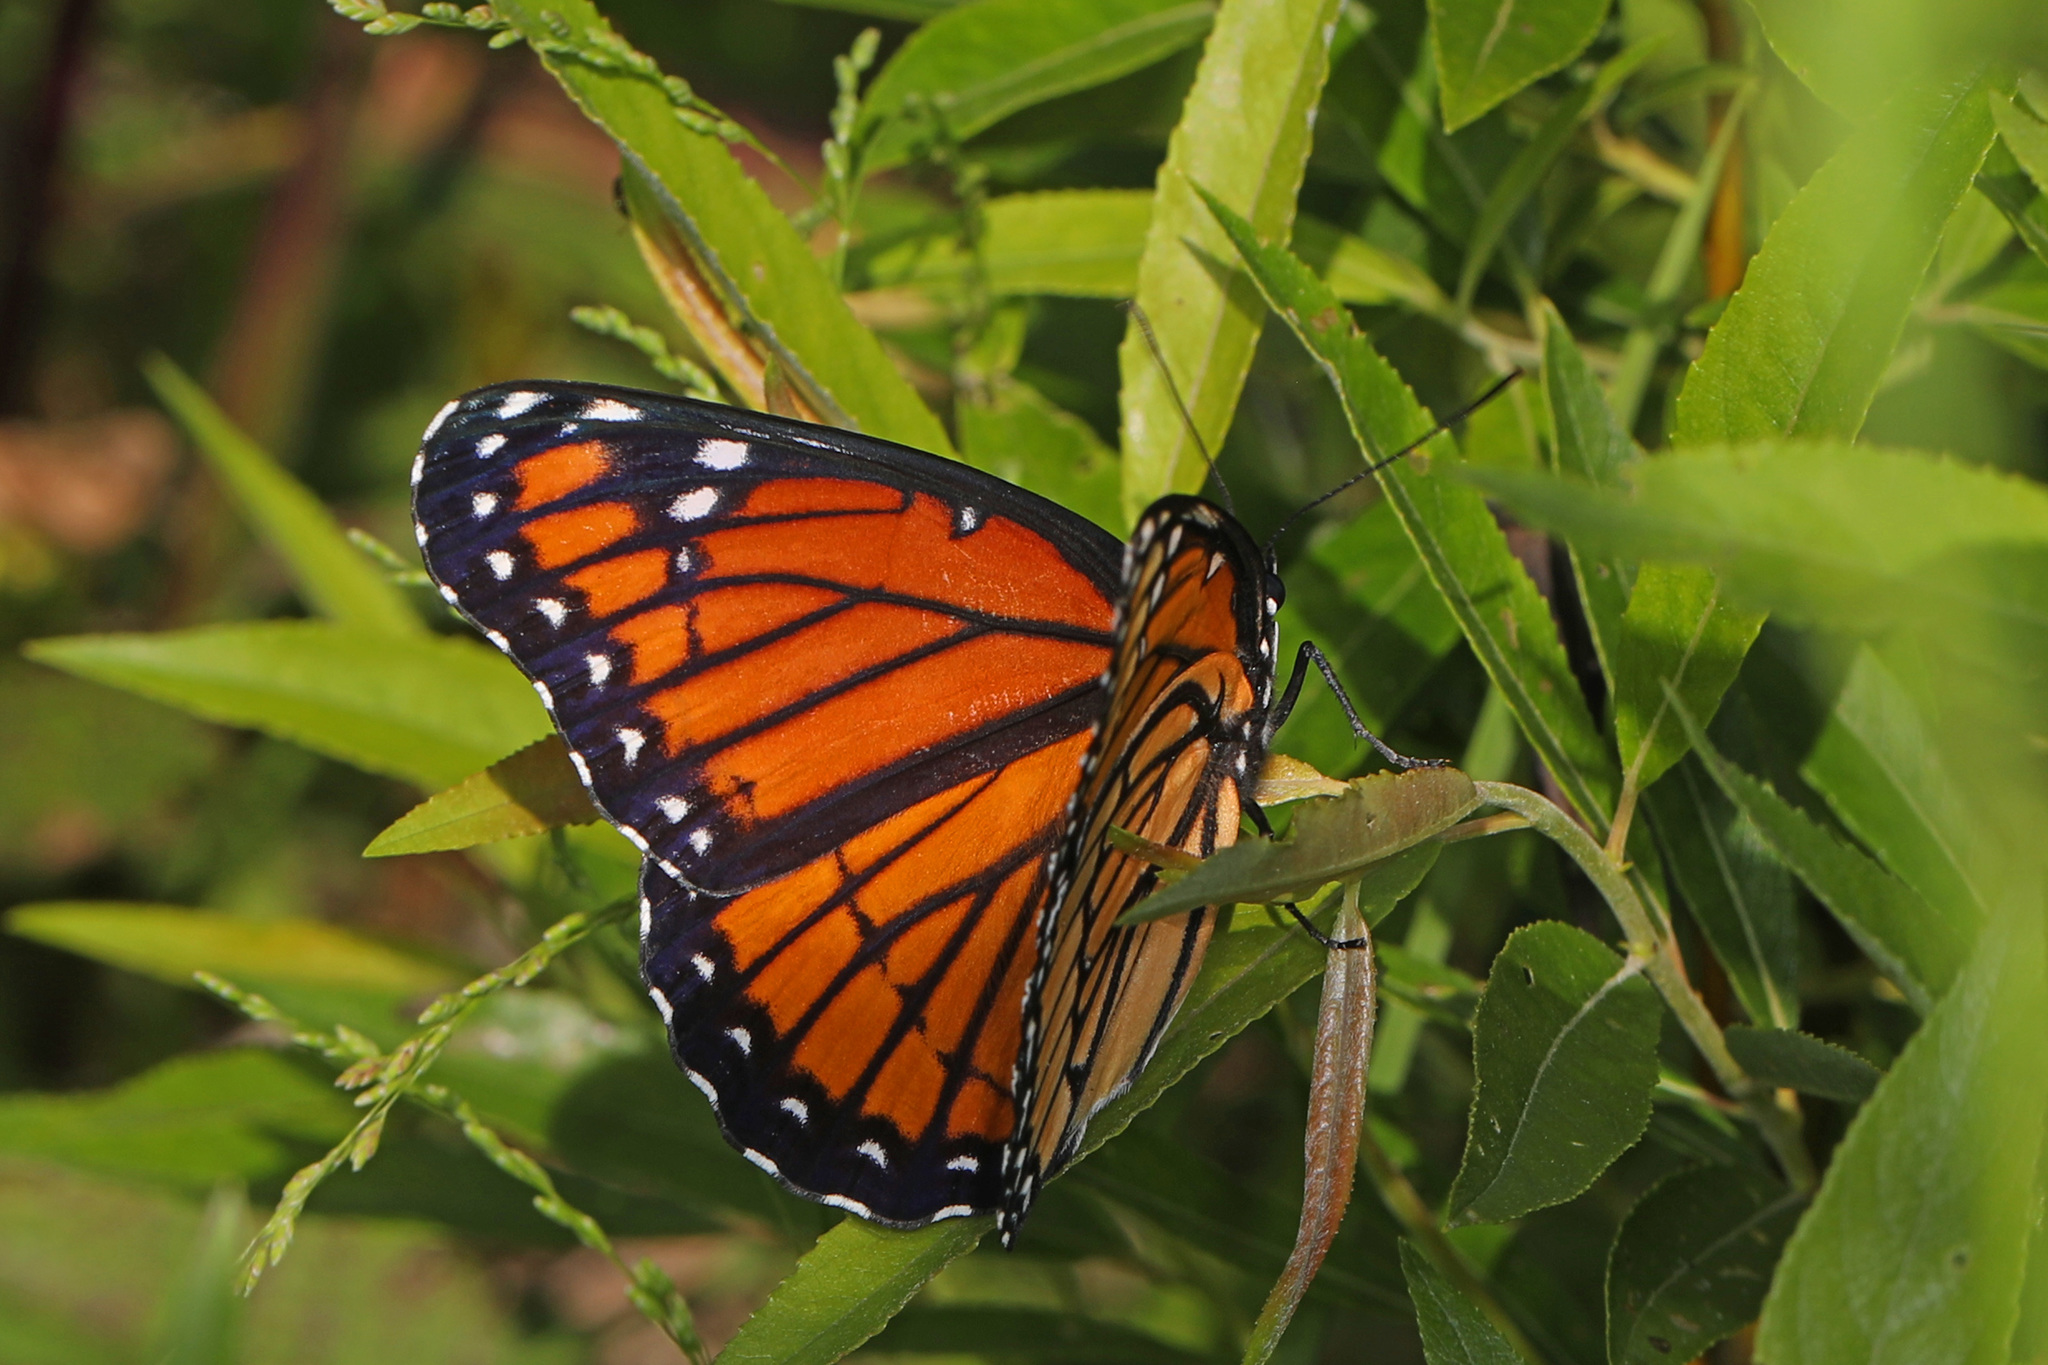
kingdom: Animalia
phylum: Arthropoda
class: Insecta
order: Lepidoptera
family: Nymphalidae
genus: Limenitis
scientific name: Limenitis archippus
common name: Viceroy
